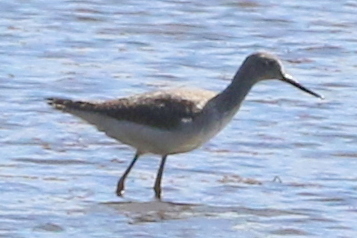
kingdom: Animalia
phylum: Chordata
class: Aves
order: Charadriiformes
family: Scolopacidae
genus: Tringa
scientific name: Tringa melanoleuca
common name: Greater yellowlegs
